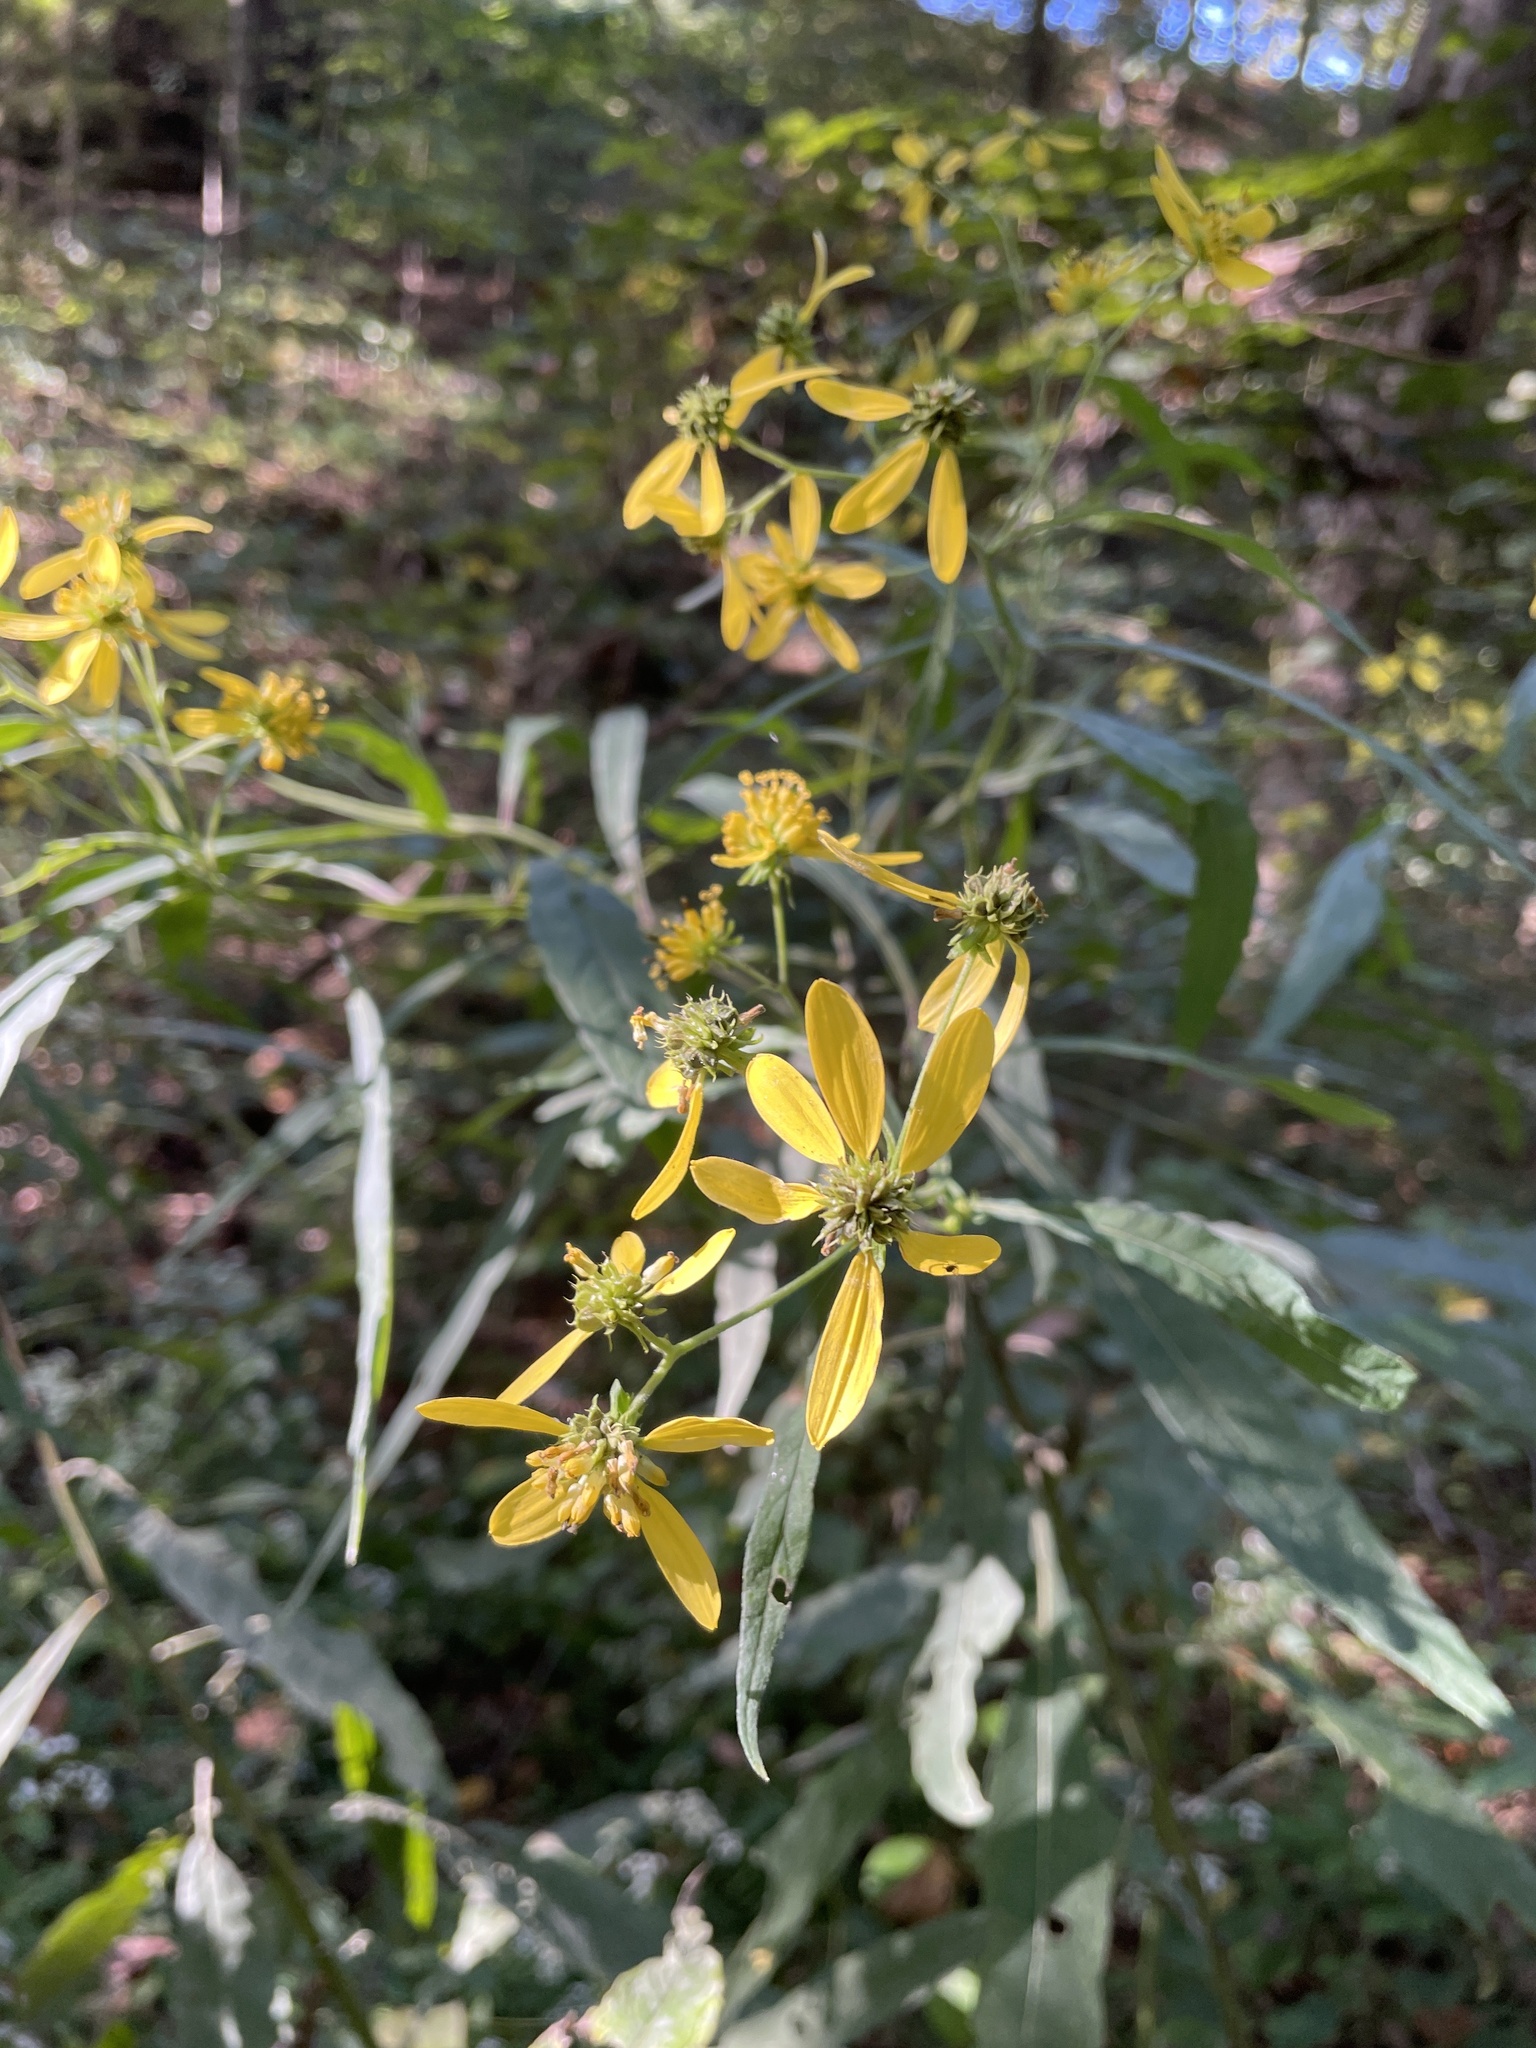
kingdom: Plantae
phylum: Tracheophyta
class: Magnoliopsida
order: Asterales
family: Asteraceae
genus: Verbesina
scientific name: Verbesina alternifolia
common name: Wingstem
